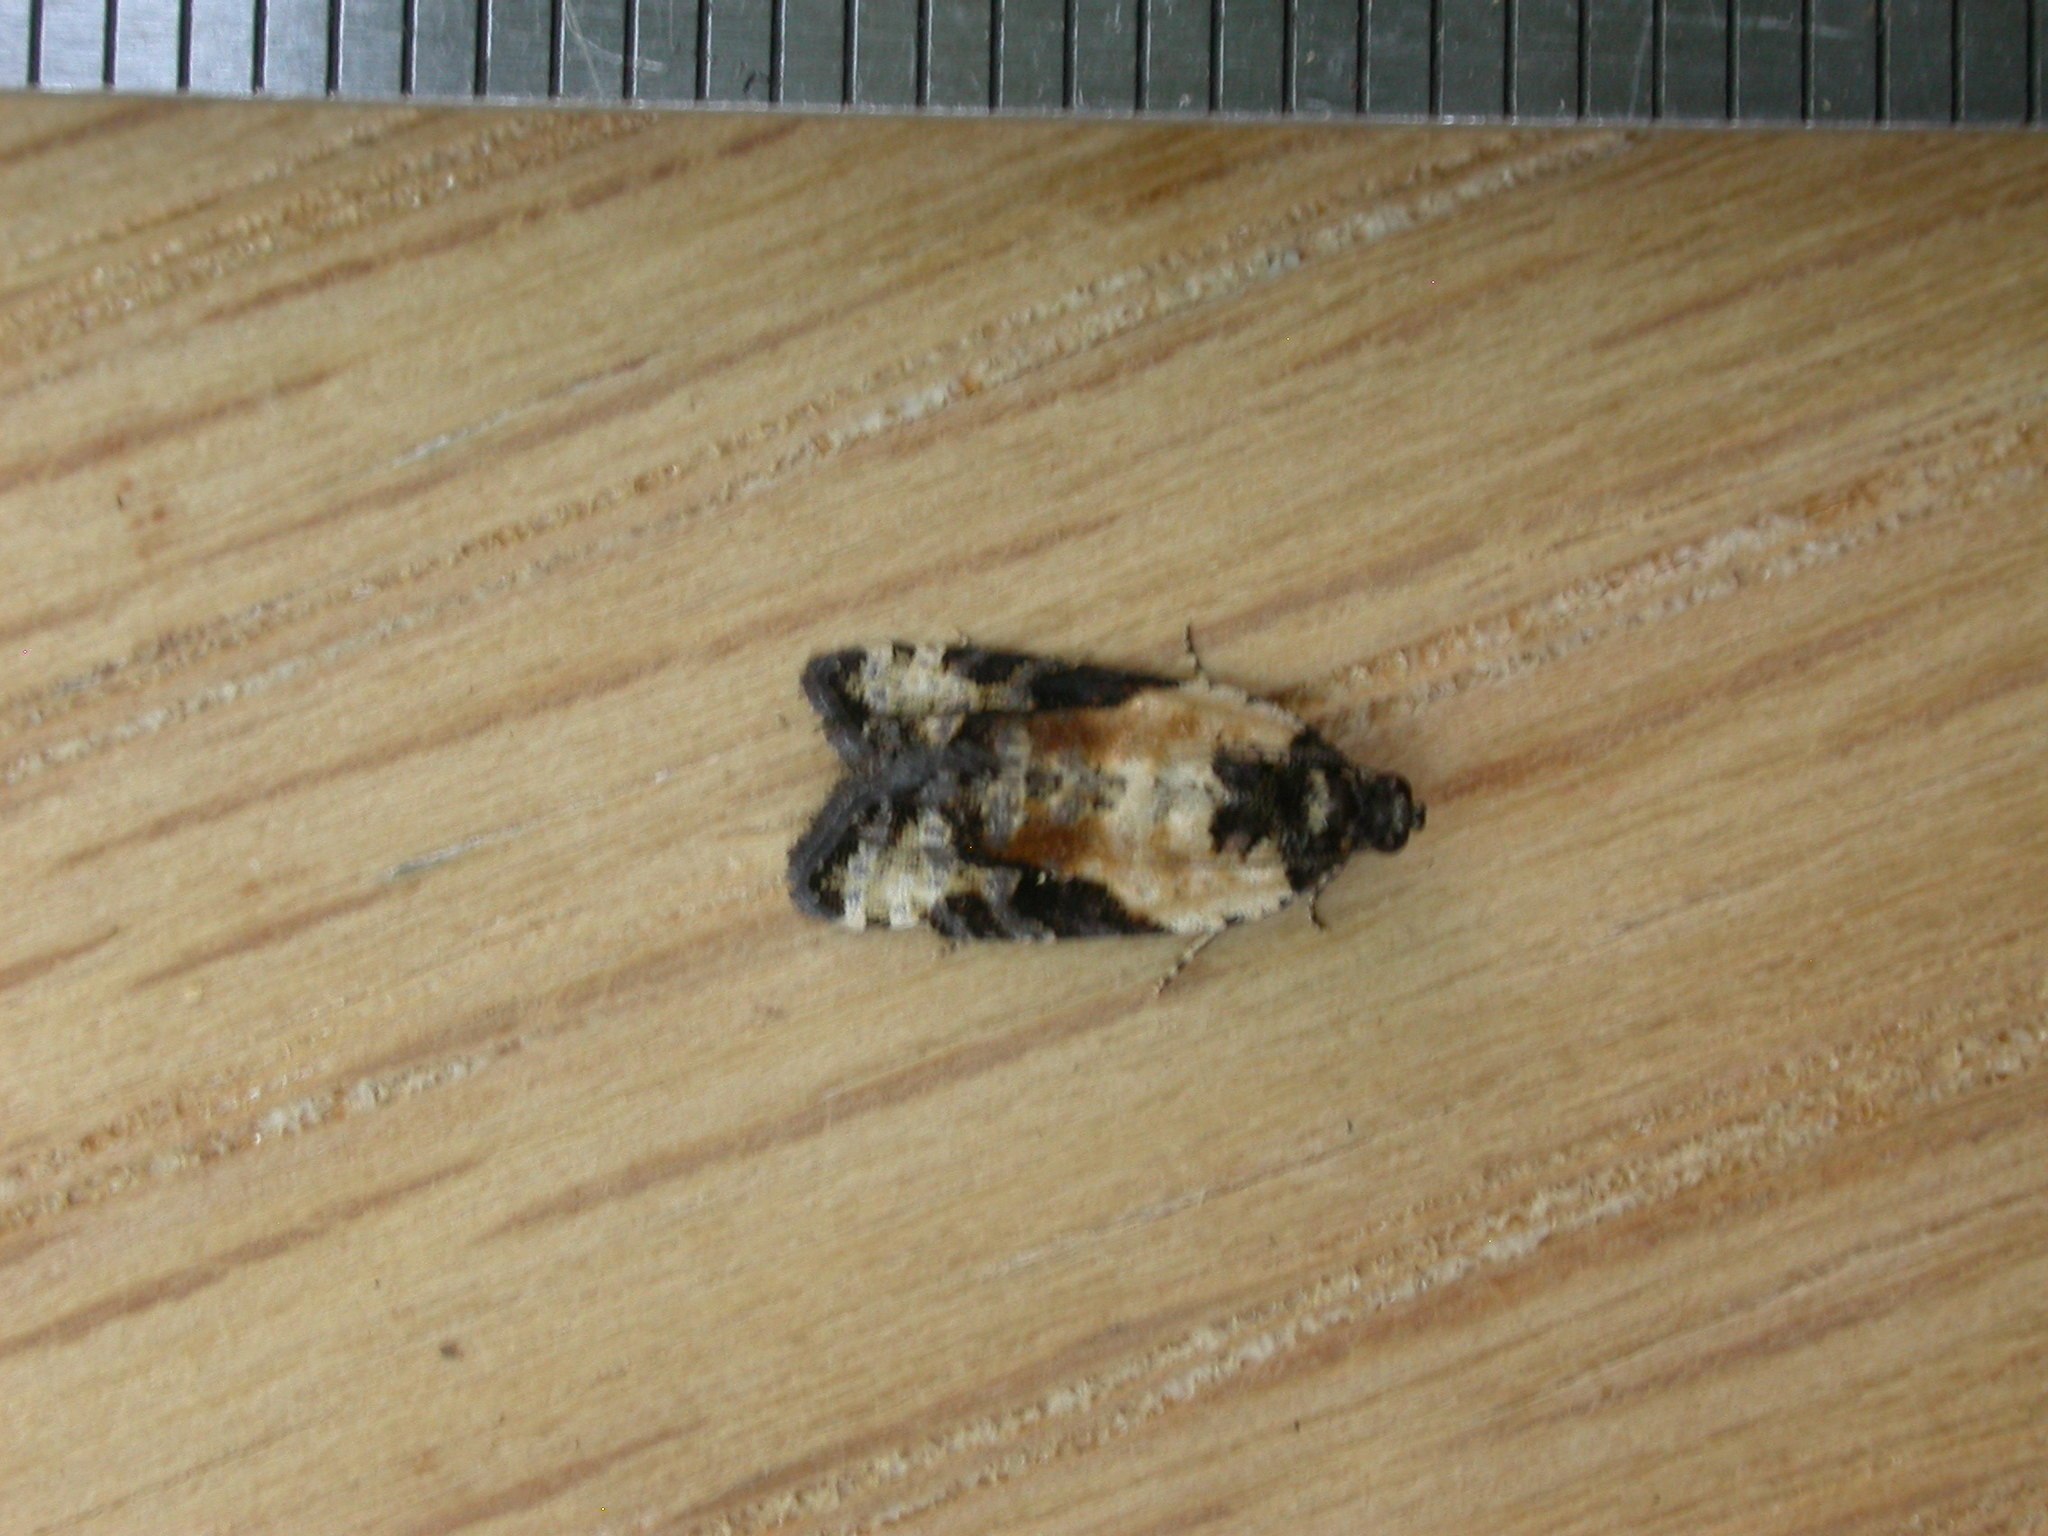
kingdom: Animalia
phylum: Arthropoda
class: Insecta
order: Lepidoptera
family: Tortricidae
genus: Asthenoptycha
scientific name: Asthenoptycha iriodes
